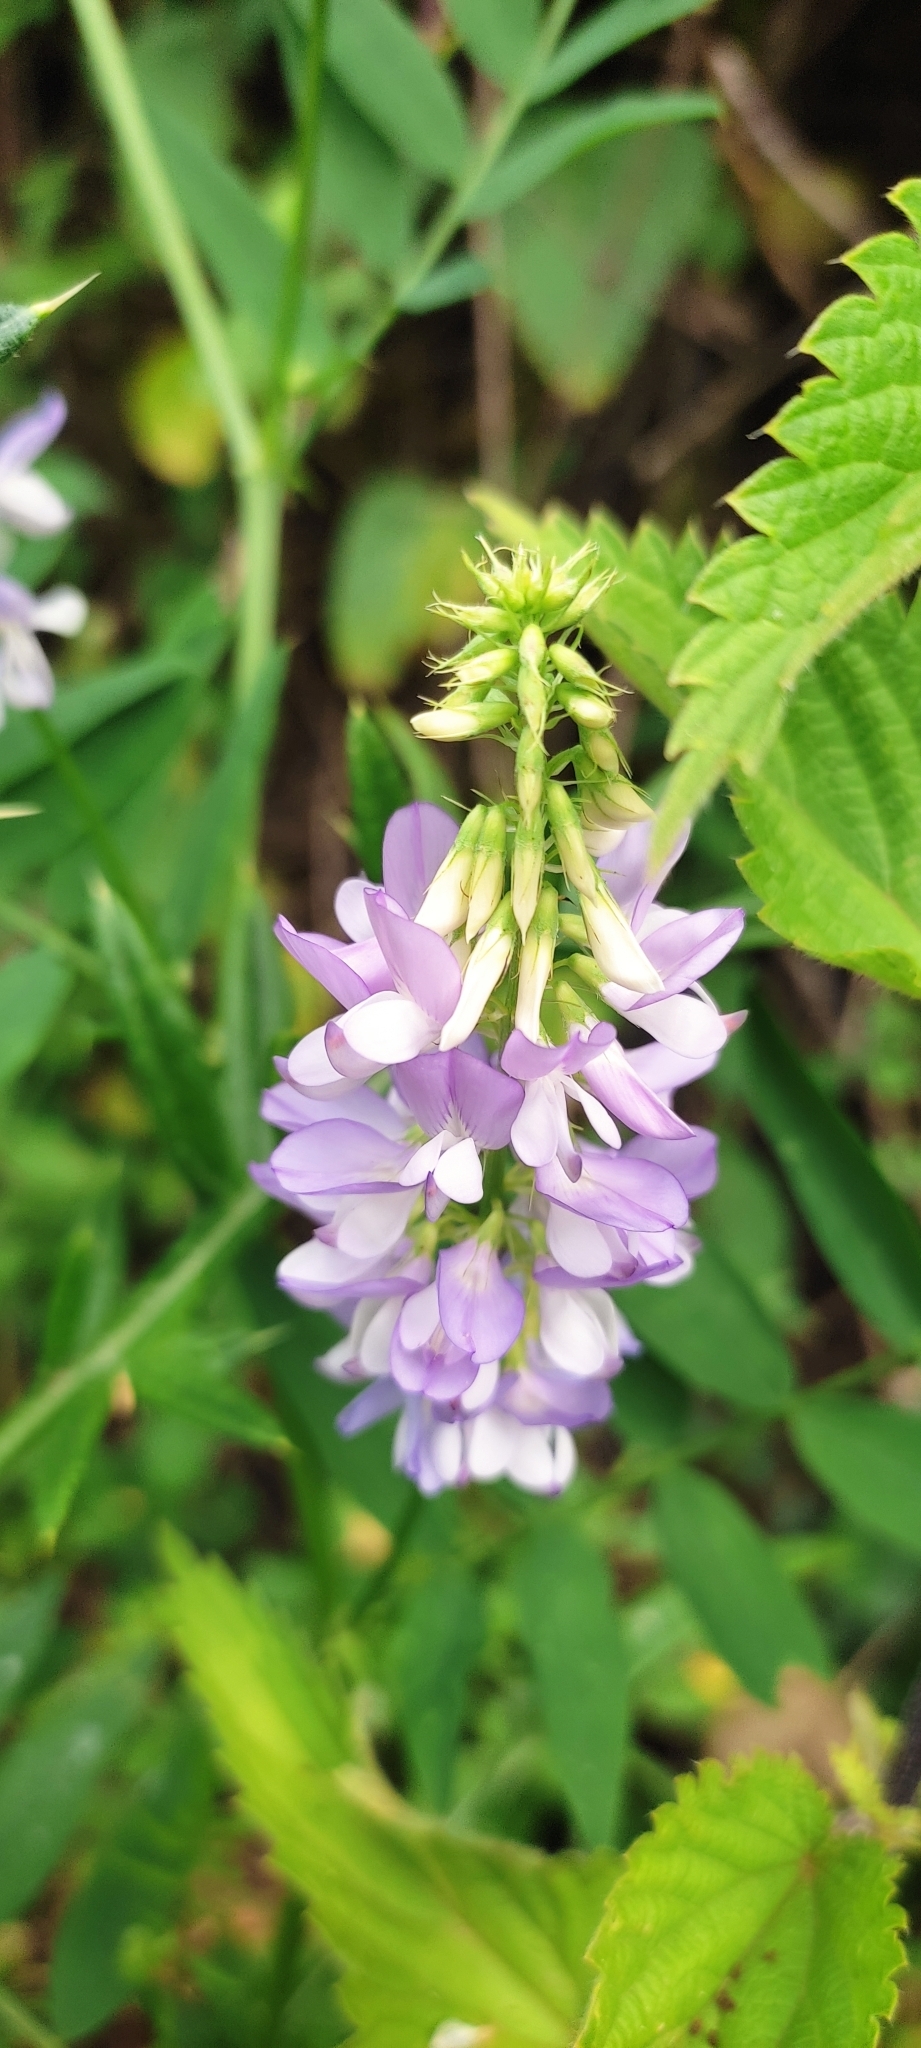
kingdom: Plantae
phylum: Tracheophyta
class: Magnoliopsida
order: Fabales
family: Fabaceae
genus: Galega
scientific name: Galega officinalis
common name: Goat's-rue
